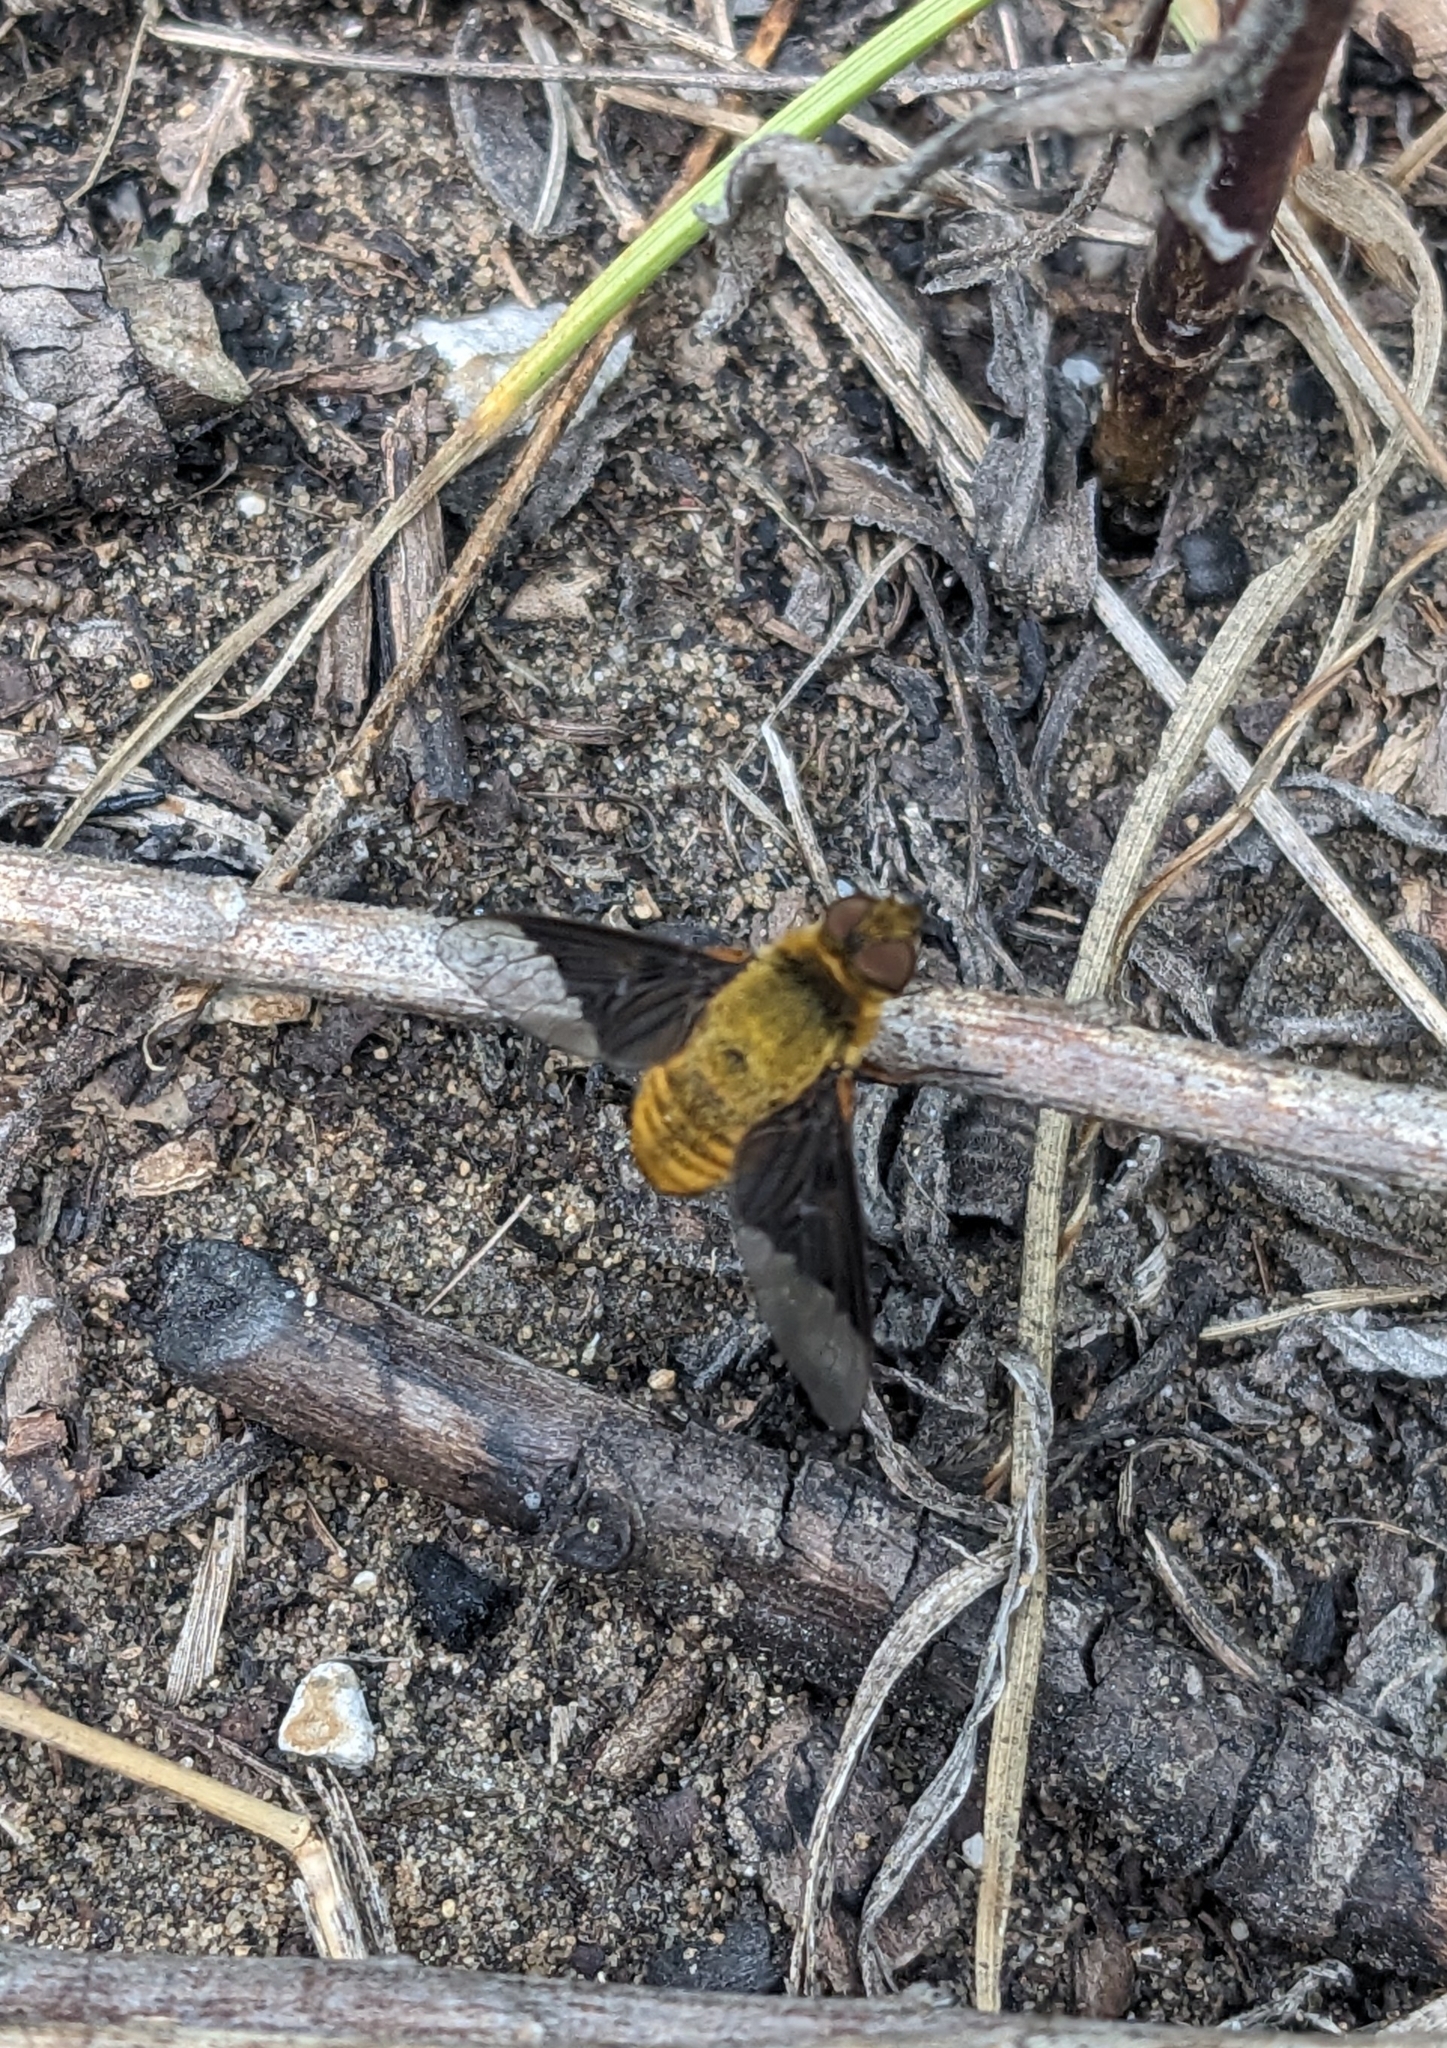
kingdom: Animalia
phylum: Arthropoda
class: Insecta
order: Diptera
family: Bombyliidae
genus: Chrysanthrax
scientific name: Chrysanthrax cypris
